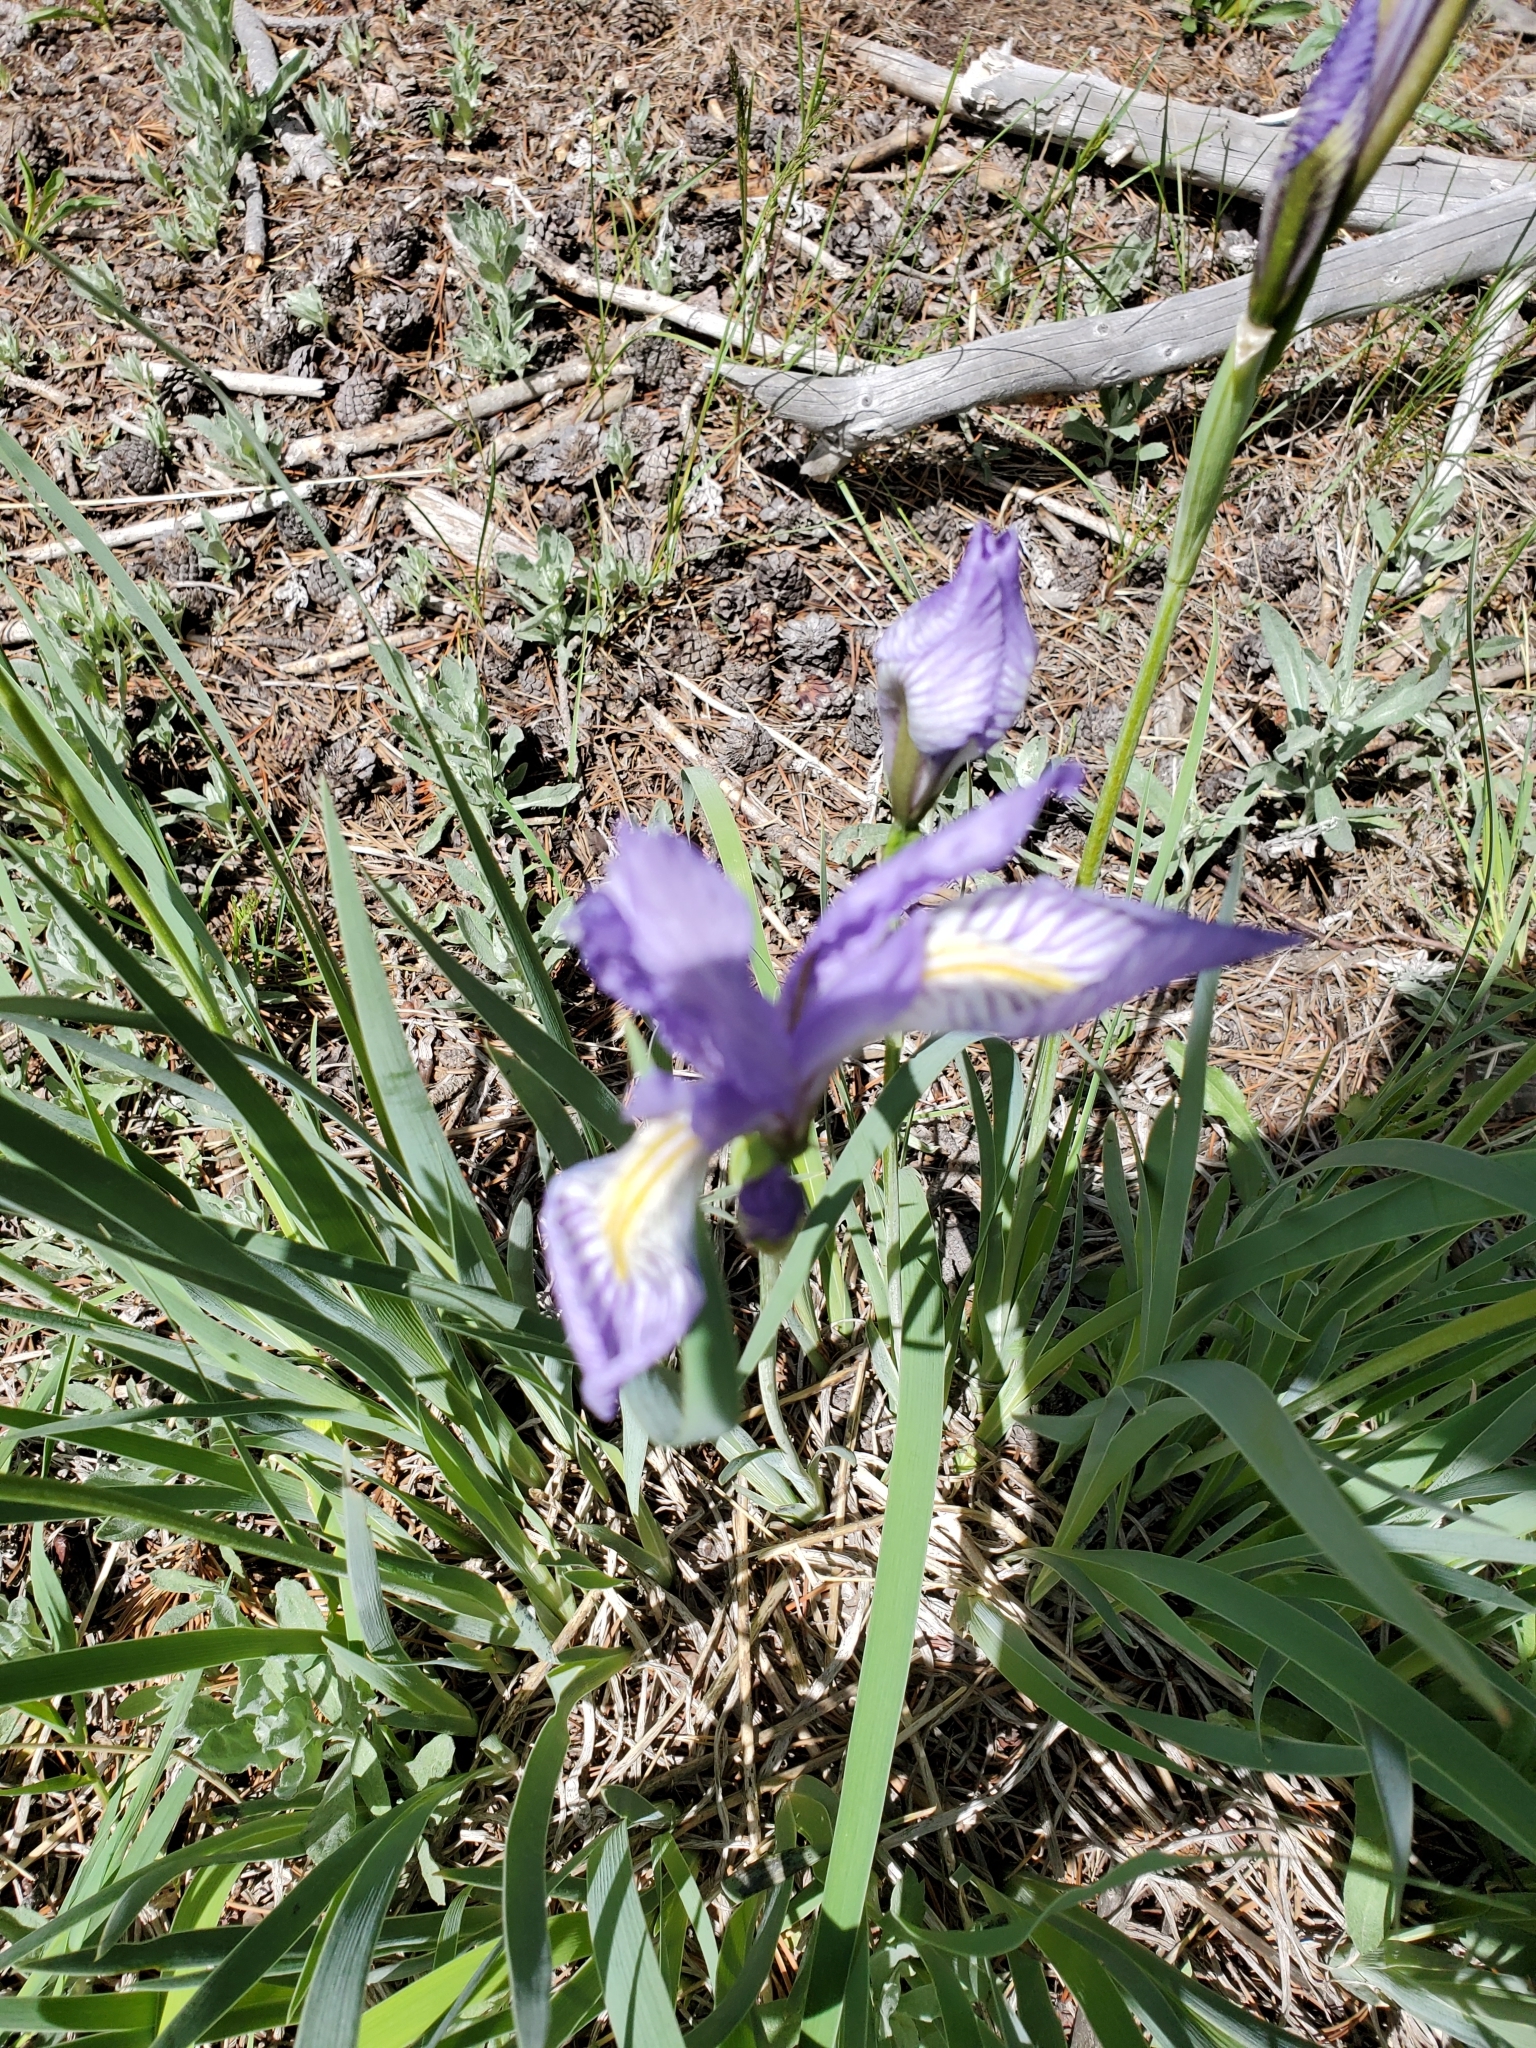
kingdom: Plantae
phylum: Tracheophyta
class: Liliopsida
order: Asparagales
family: Iridaceae
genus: Iris
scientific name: Iris missouriensis
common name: Rocky mountain iris
